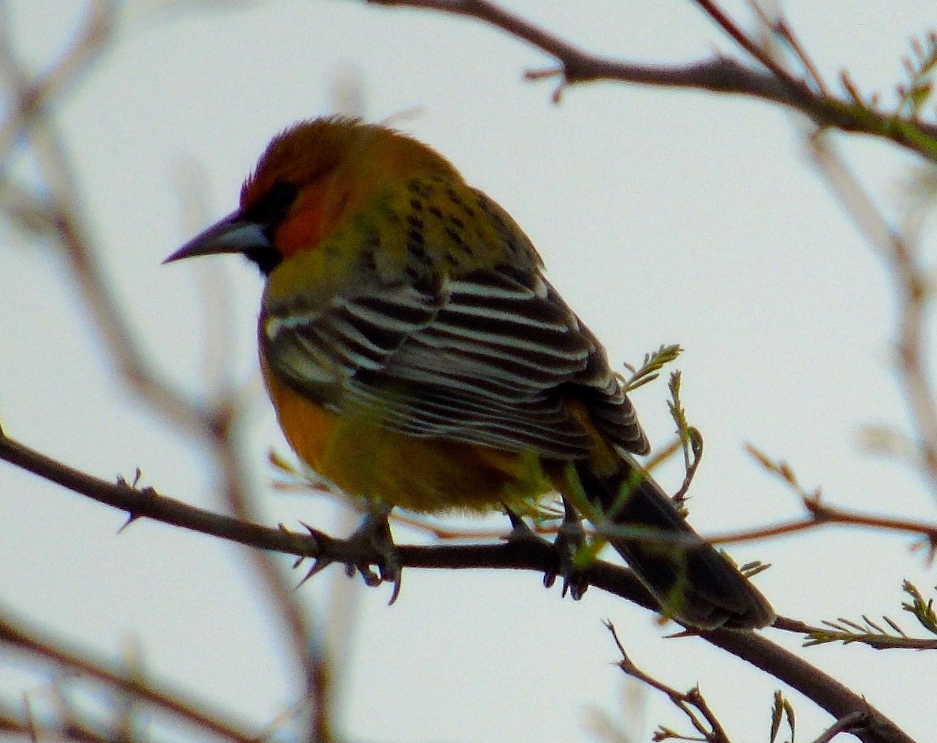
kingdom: Animalia
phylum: Chordata
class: Aves
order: Passeriformes
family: Icteridae
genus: Icterus
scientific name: Icterus pustulatus
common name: Streak-backed oriole
